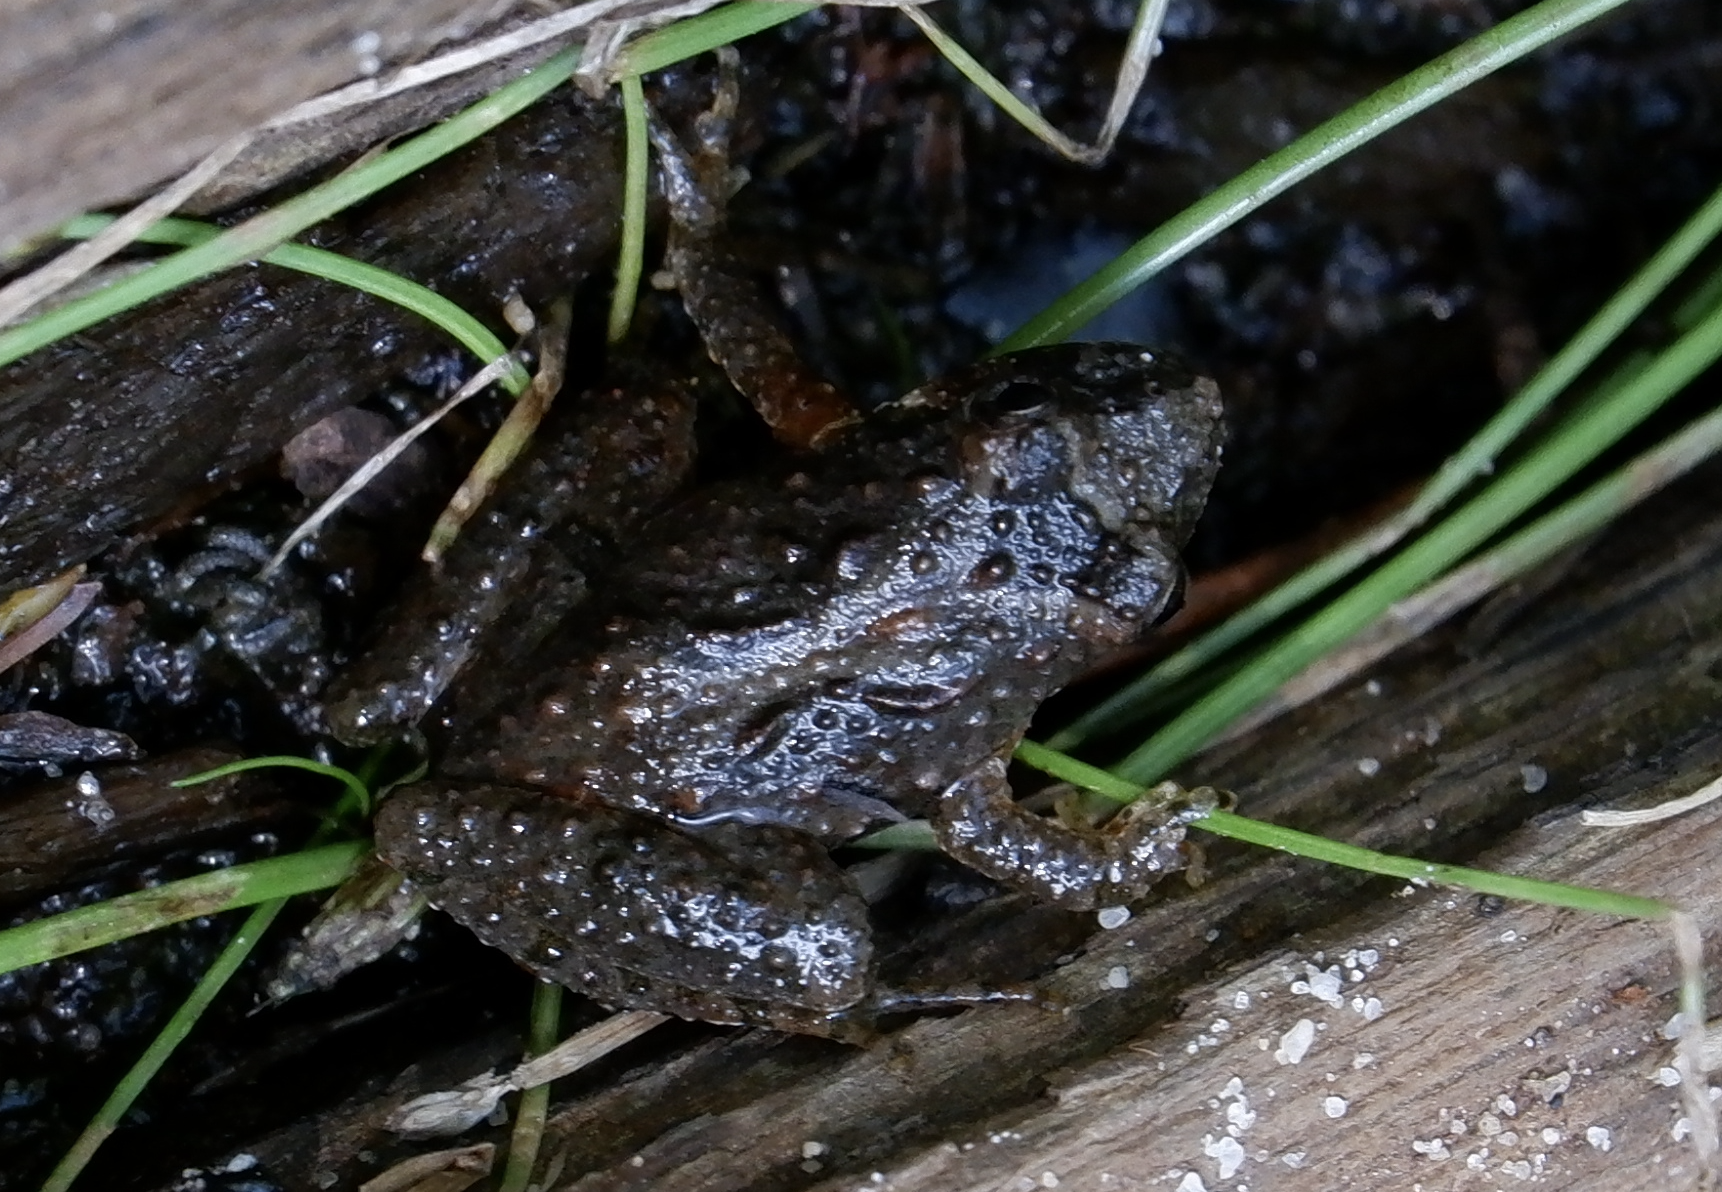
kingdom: Animalia
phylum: Chordata
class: Amphibia
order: Anura
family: Hylidae
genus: Acris
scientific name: Acris crepitans
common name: Northern cricket frog
